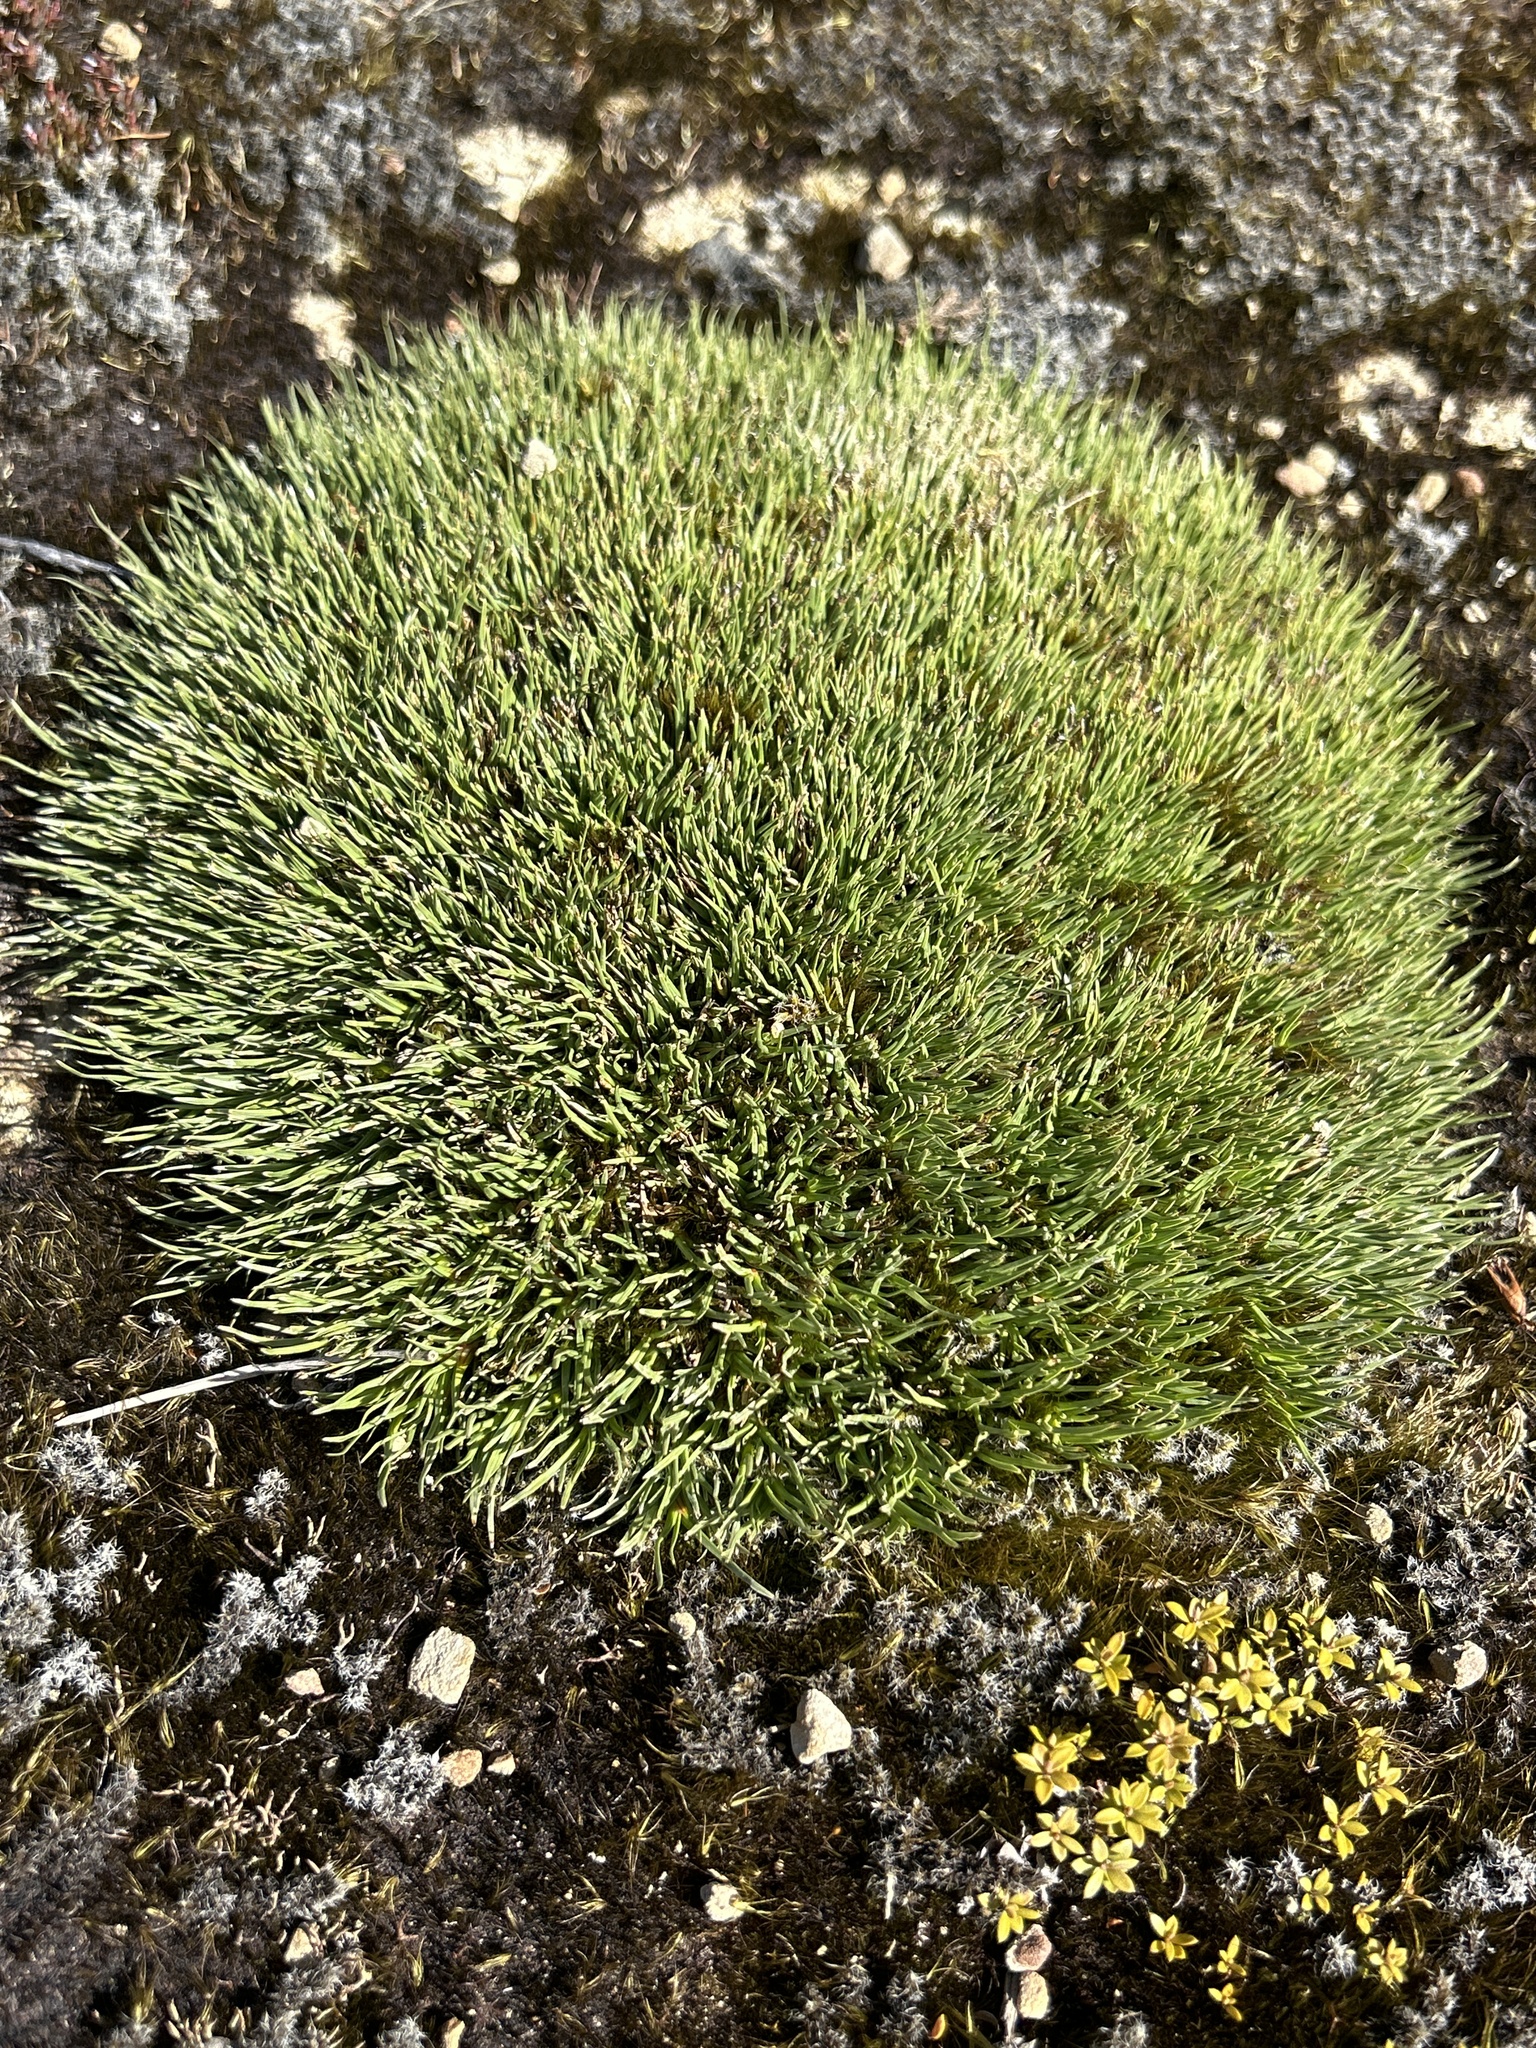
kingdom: Plantae
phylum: Tracheophyta
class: Liliopsida
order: Poales
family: Cyperaceae
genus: Oreobolus
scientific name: Oreobolus pectinatus
